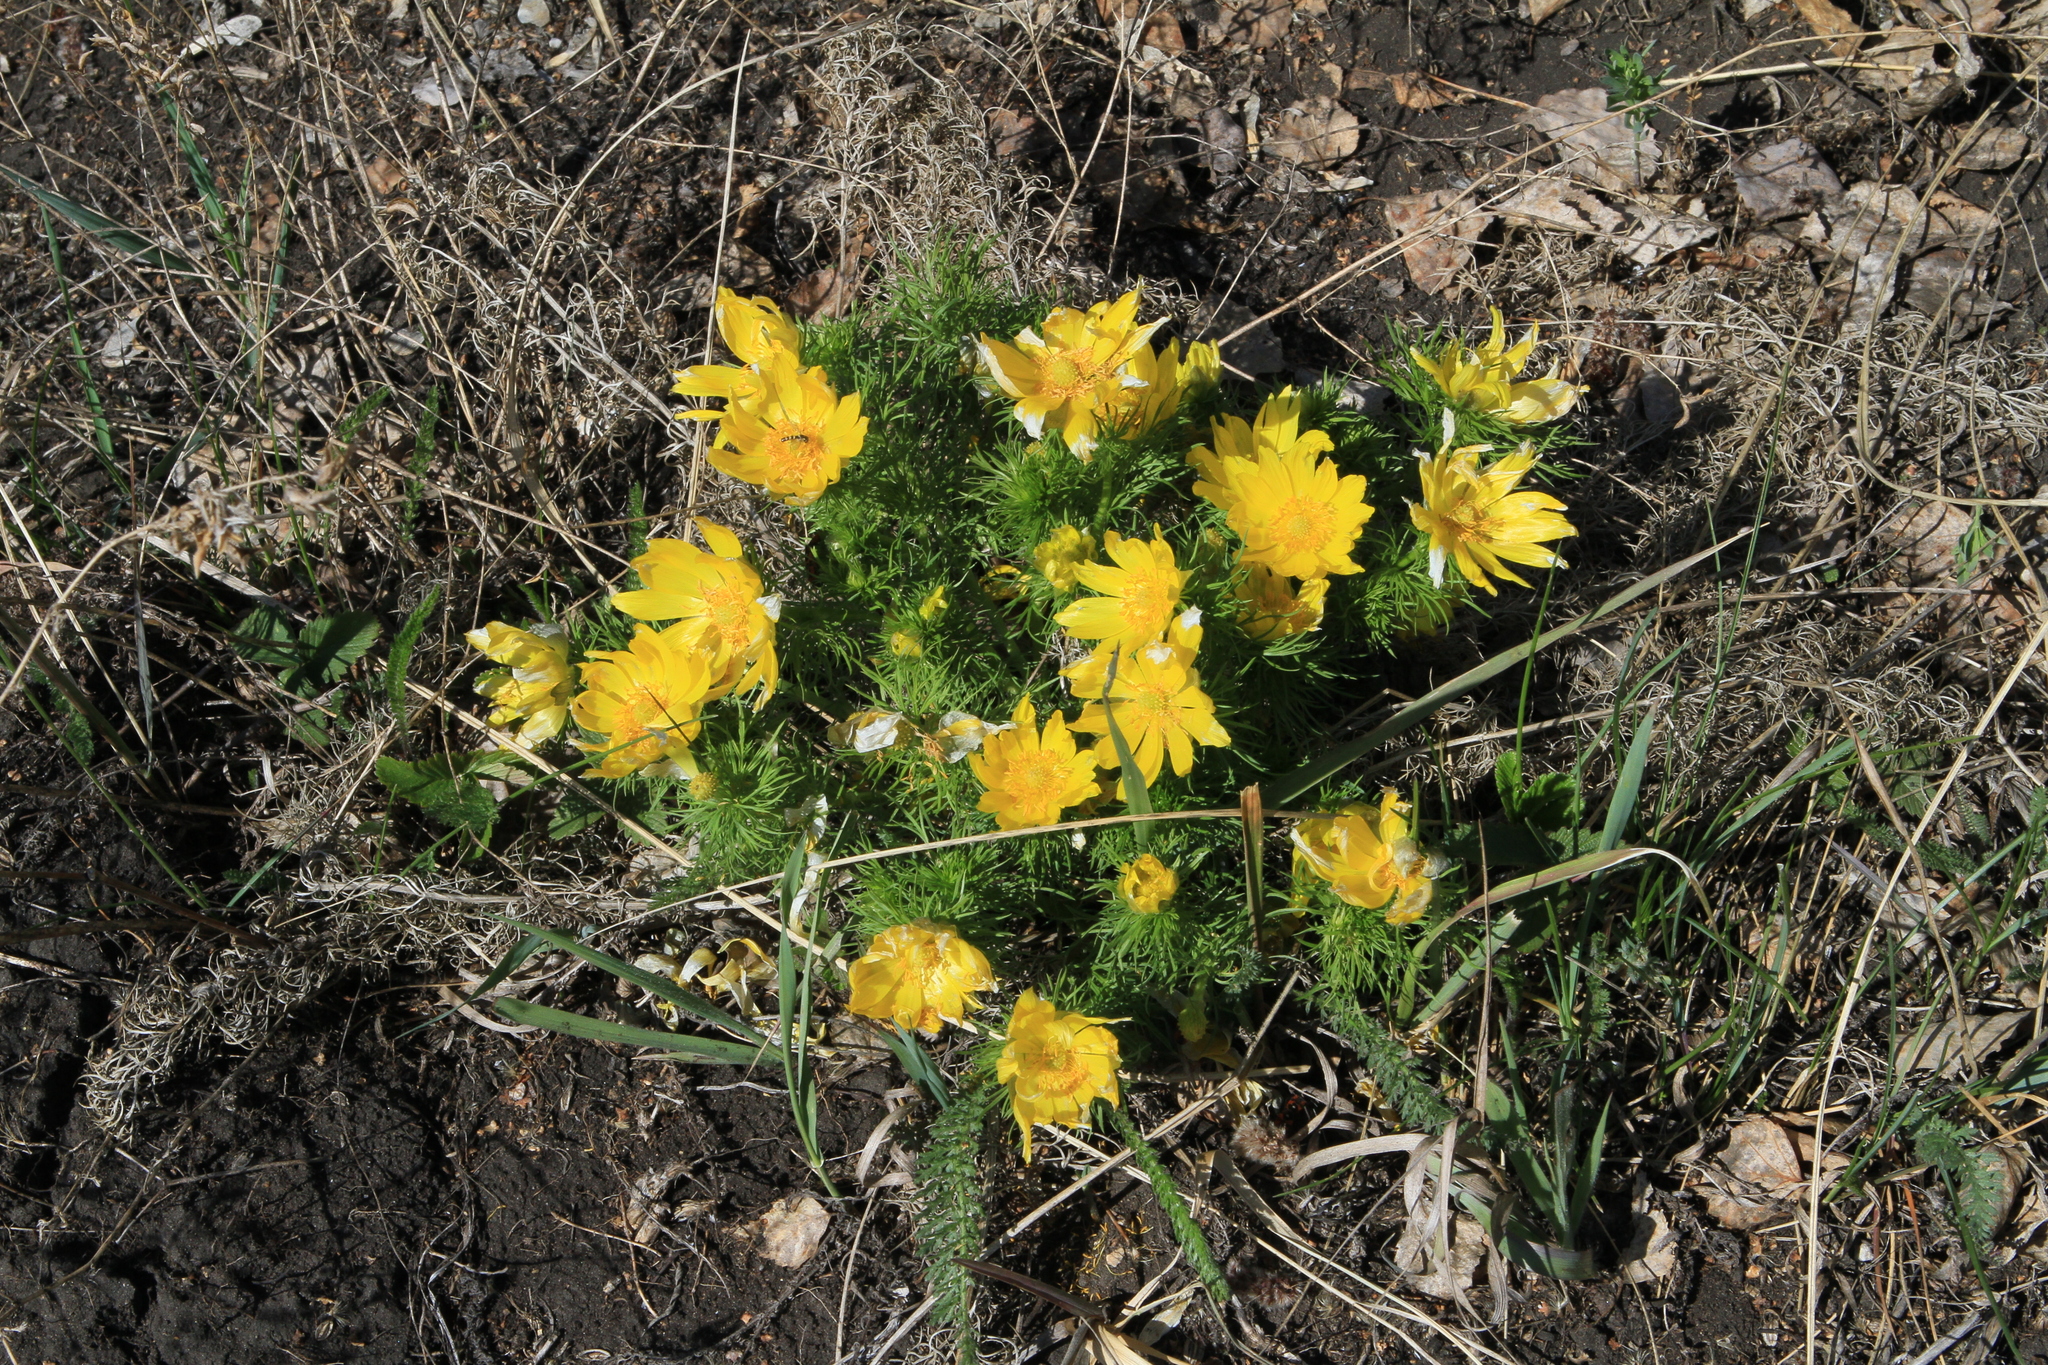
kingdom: Plantae
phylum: Tracheophyta
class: Magnoliopsida
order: Ranunculales
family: Ranunculaceae
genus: Adonis
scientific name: Adonis vernalis
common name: Yellow pheasants-eye
